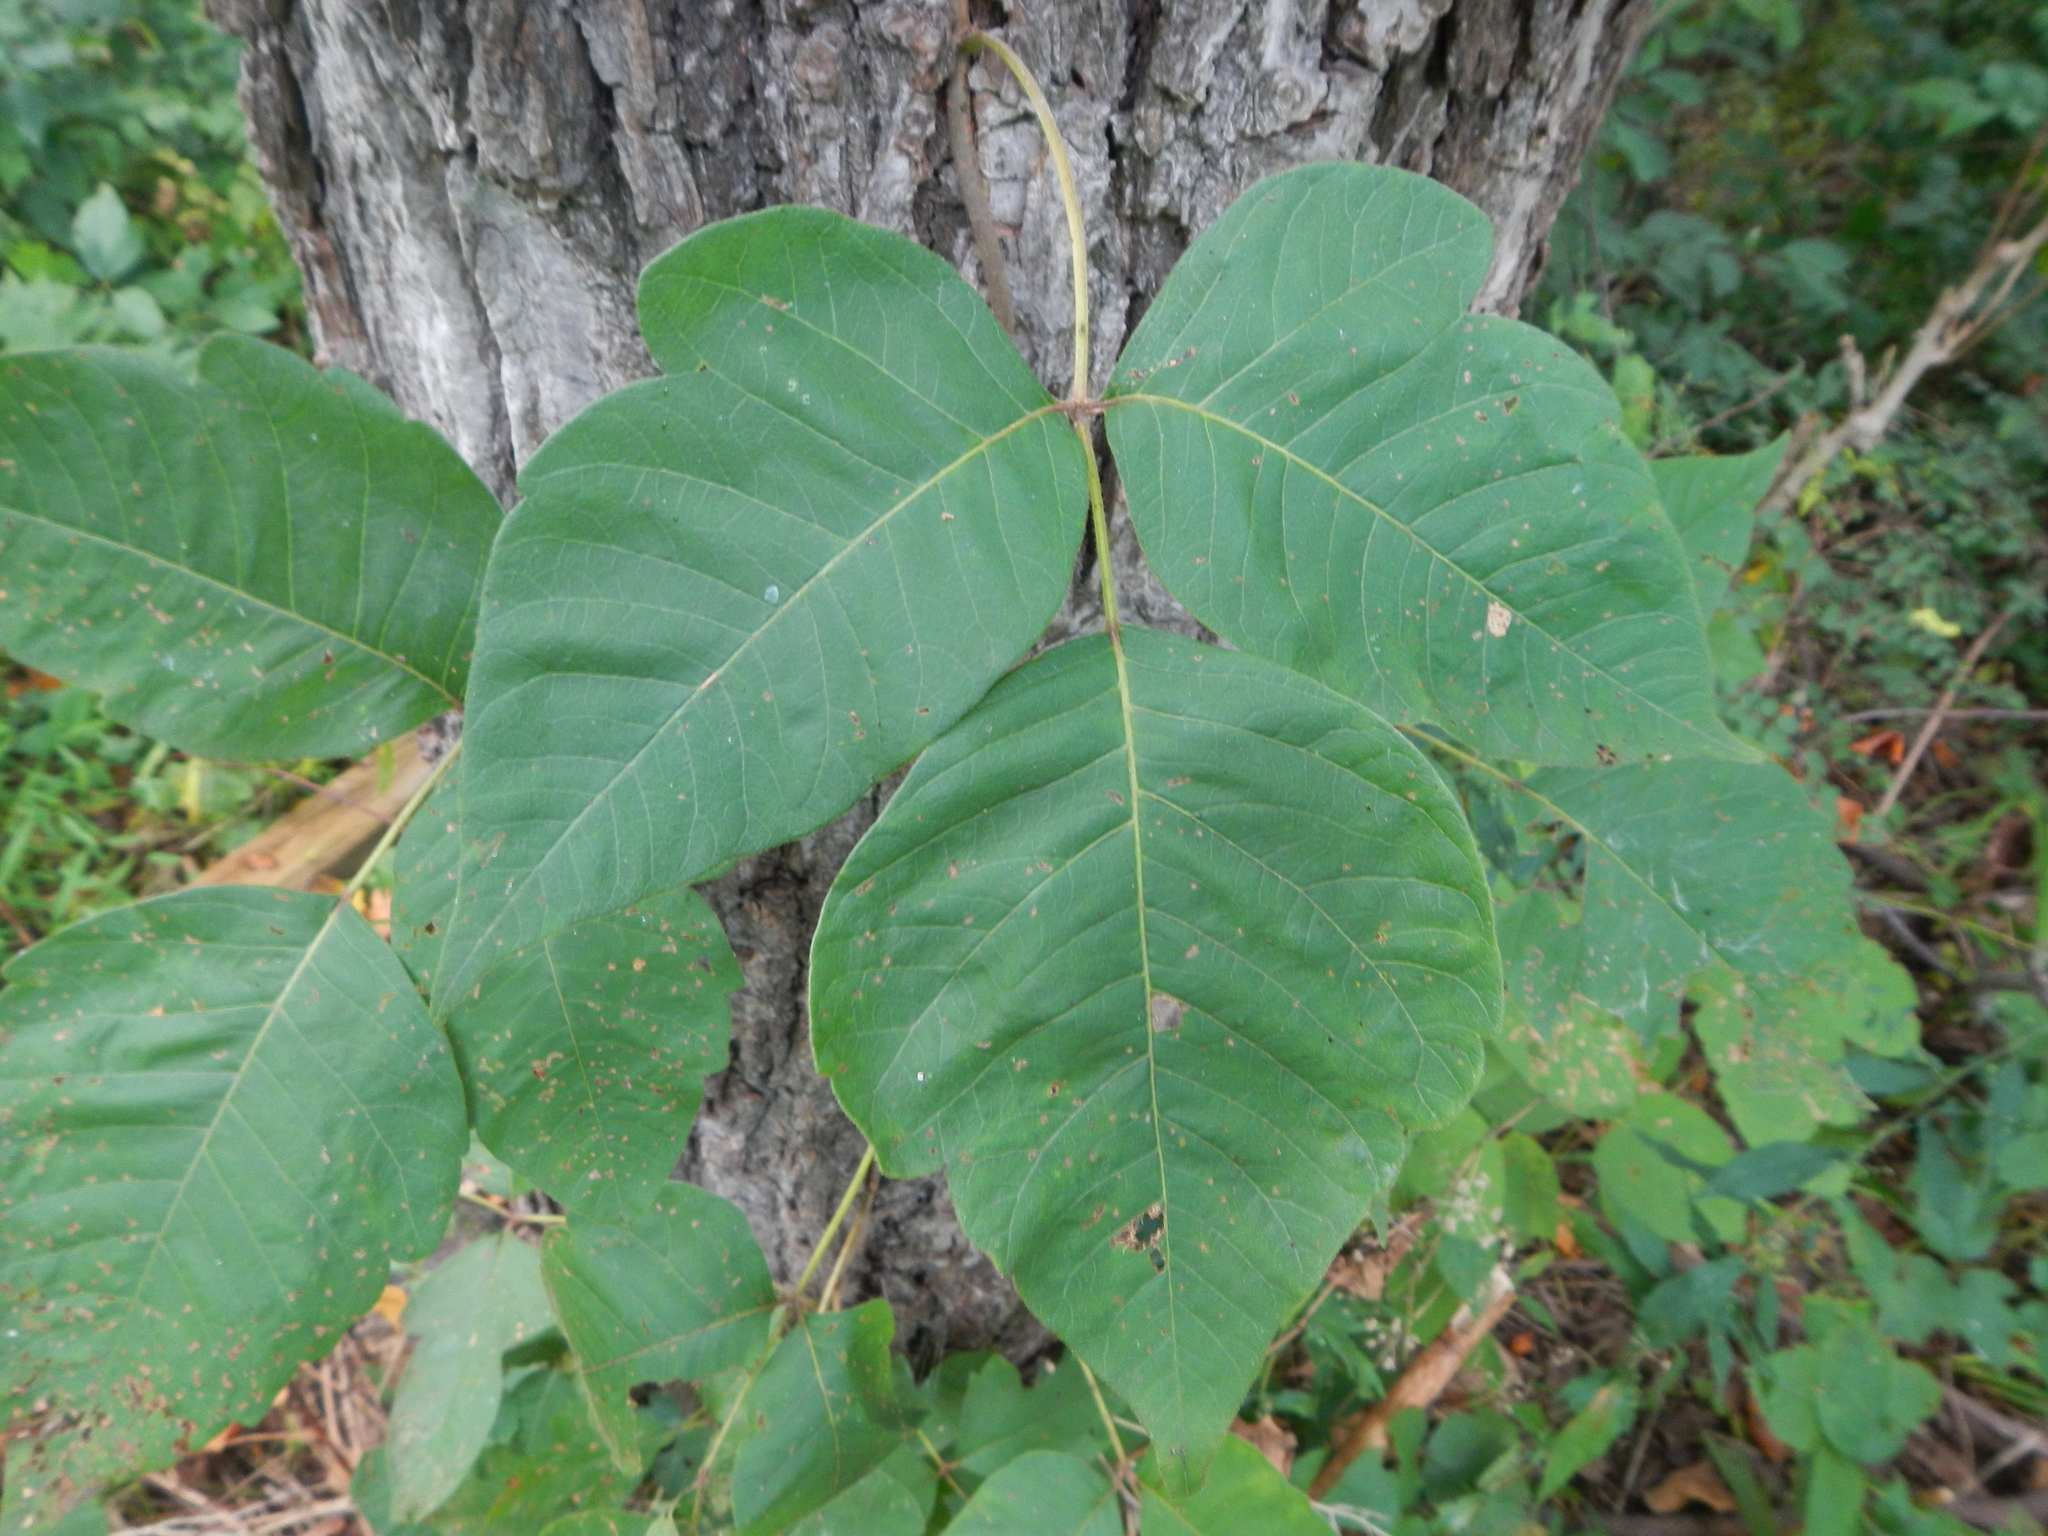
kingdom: Plantae
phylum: Tracheophyta
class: Magnoliopsida
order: Sapindales
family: Anacardiaceae
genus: Toxicodendron
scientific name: Toxicodendron radicans
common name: Poison ivy
